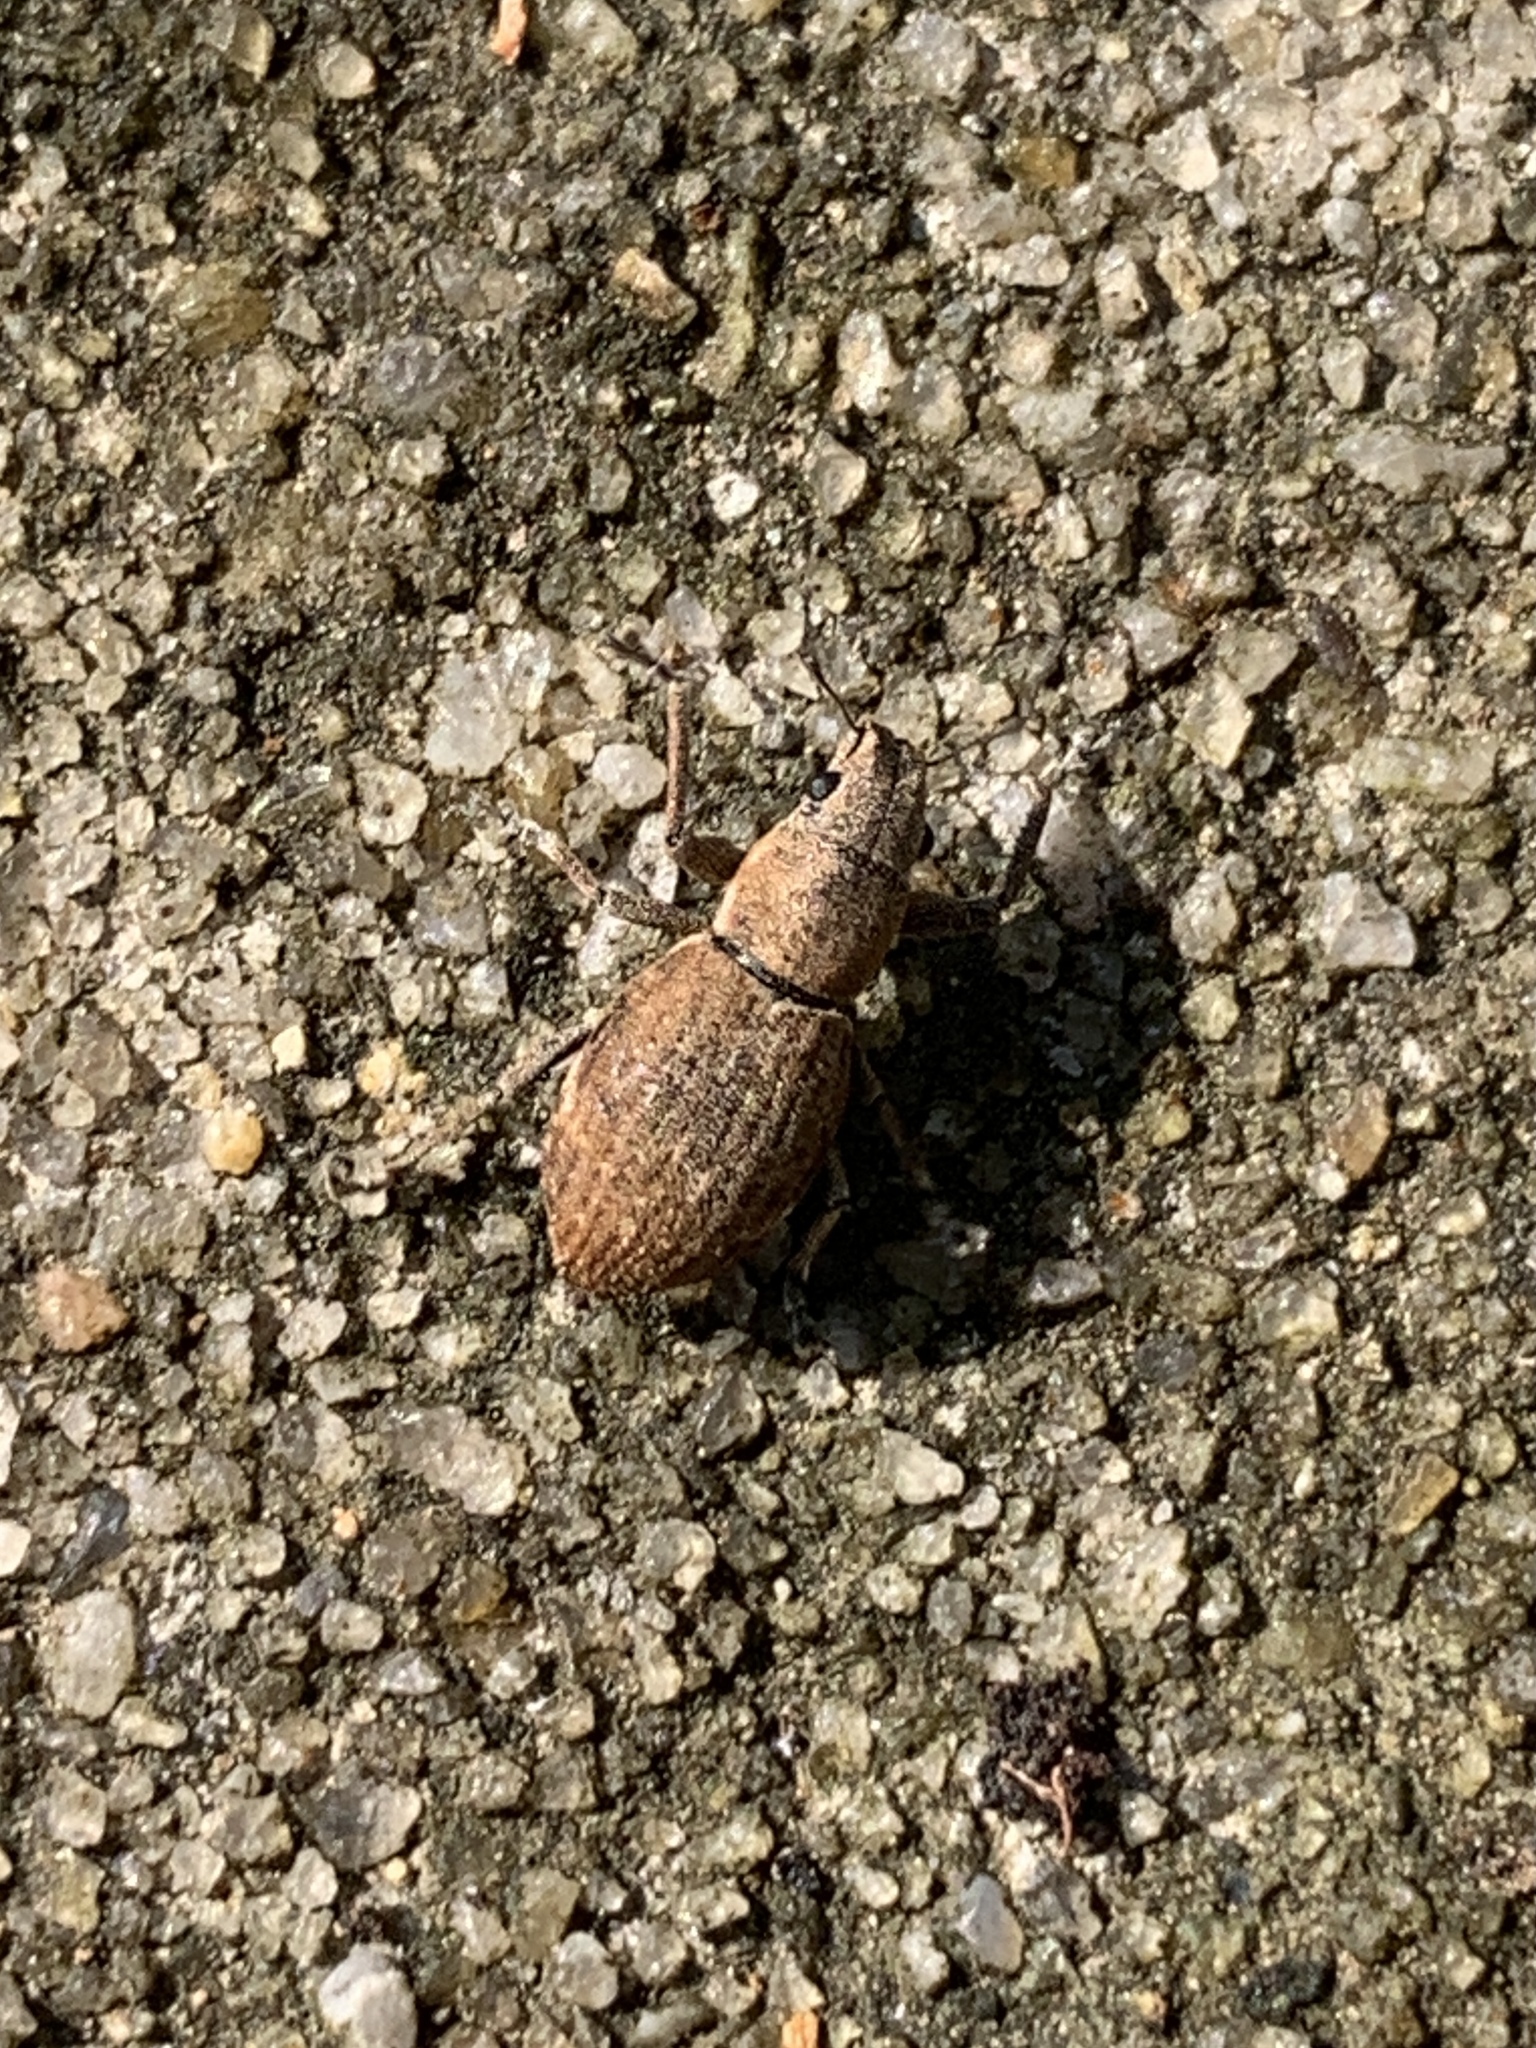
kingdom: Animalia
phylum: Arthropoda
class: Insecta
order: Coleoptera
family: Curculionidae
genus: Naupactus
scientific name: Naupactus cervinus
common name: Fuller rose beetle
